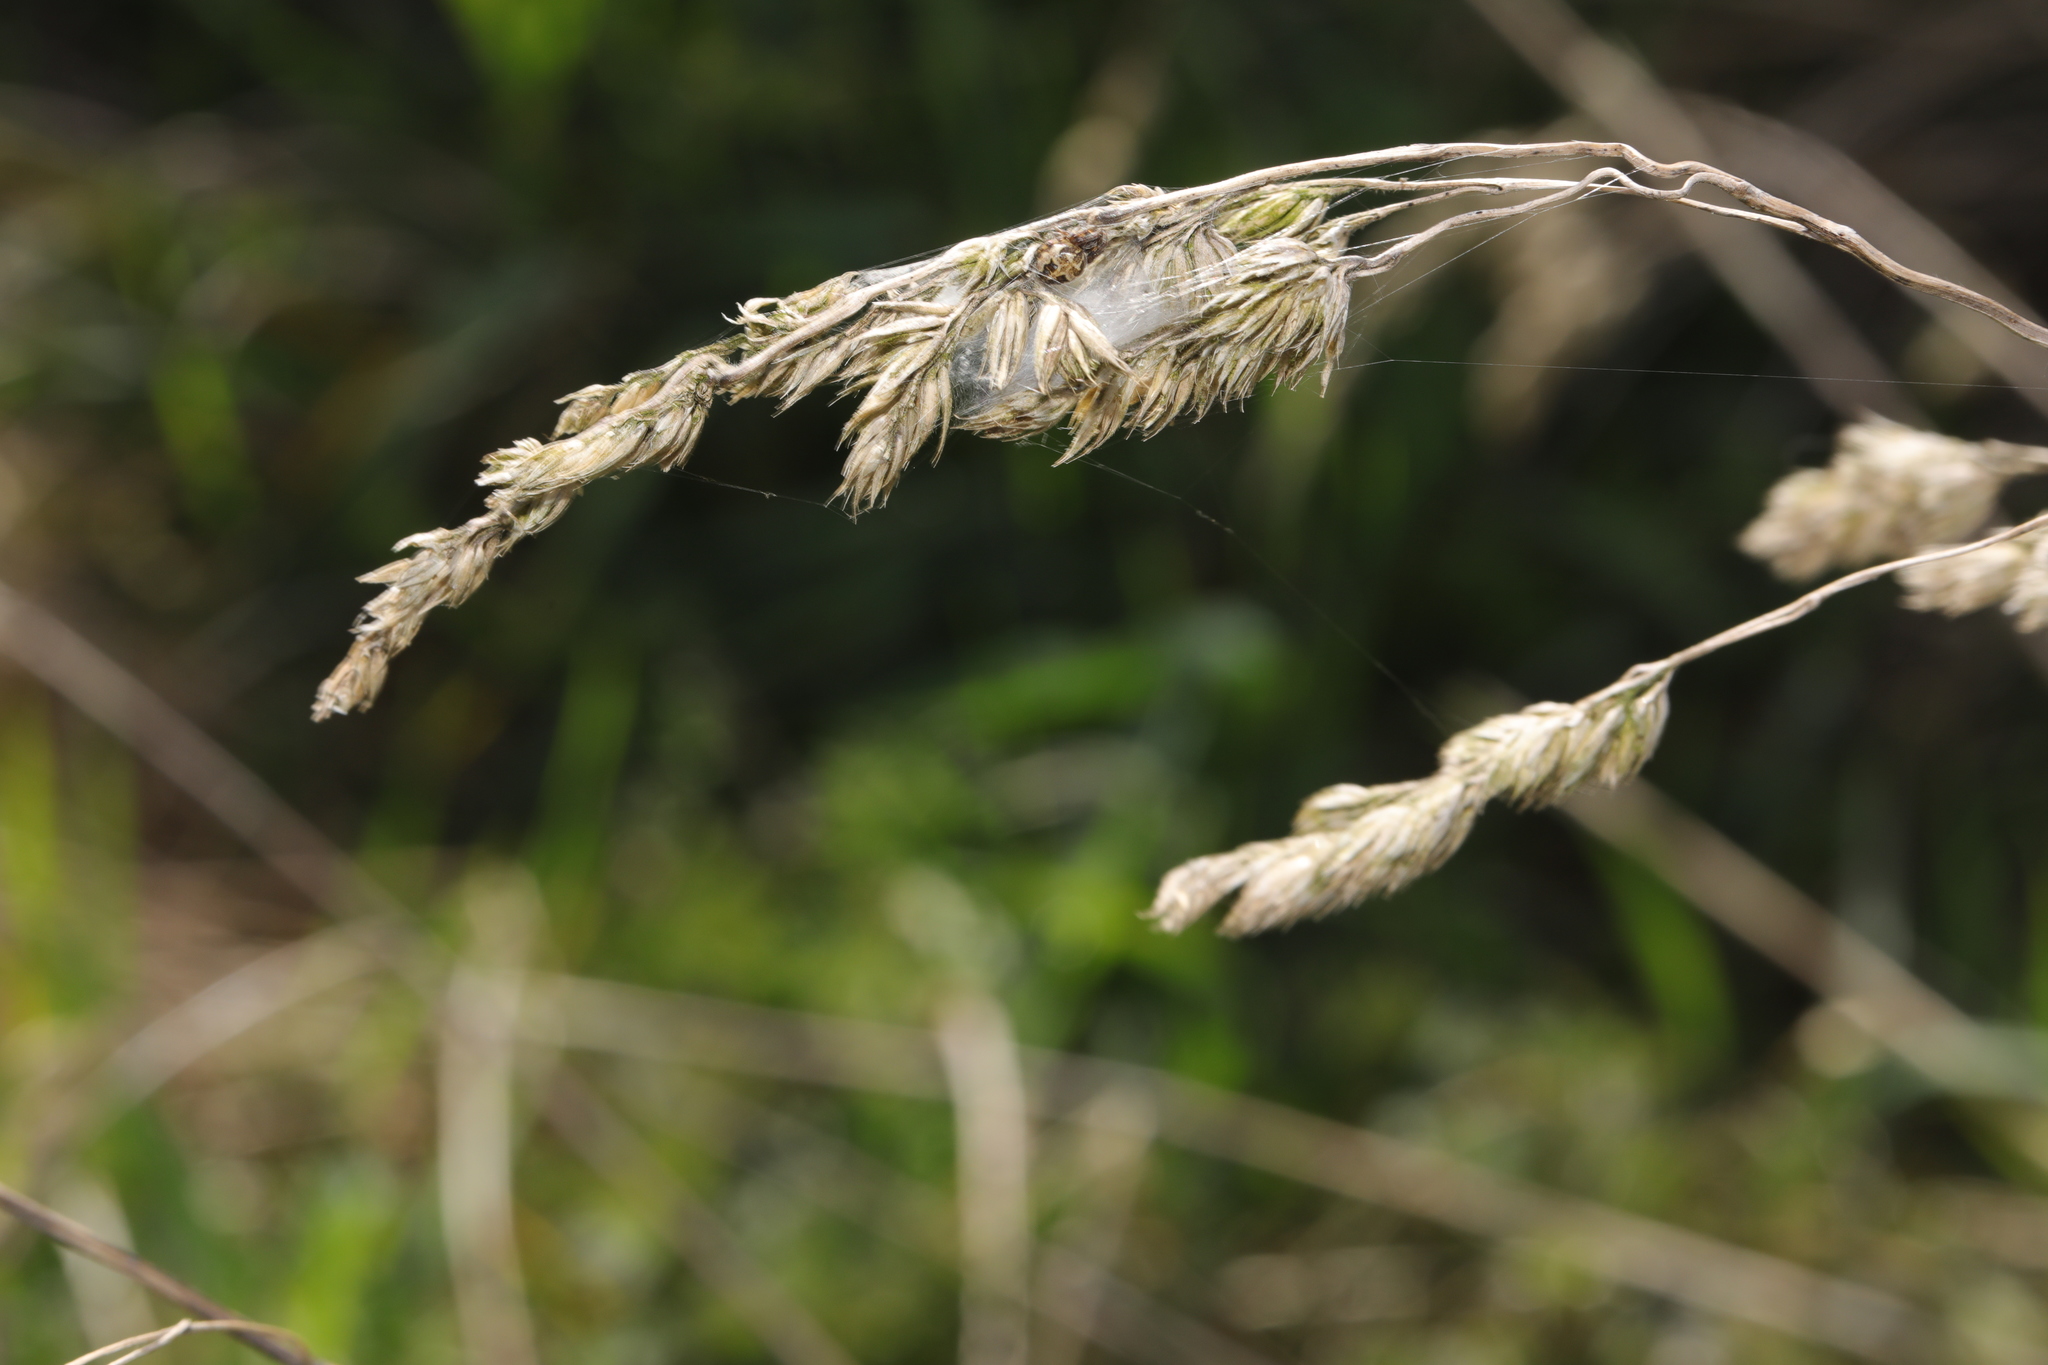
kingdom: Plantae
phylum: Tracheophyta
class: Liliopsida
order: Poales
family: Poaceae
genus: Dactylis
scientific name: Dactylis glomerata
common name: Orchardgrass
